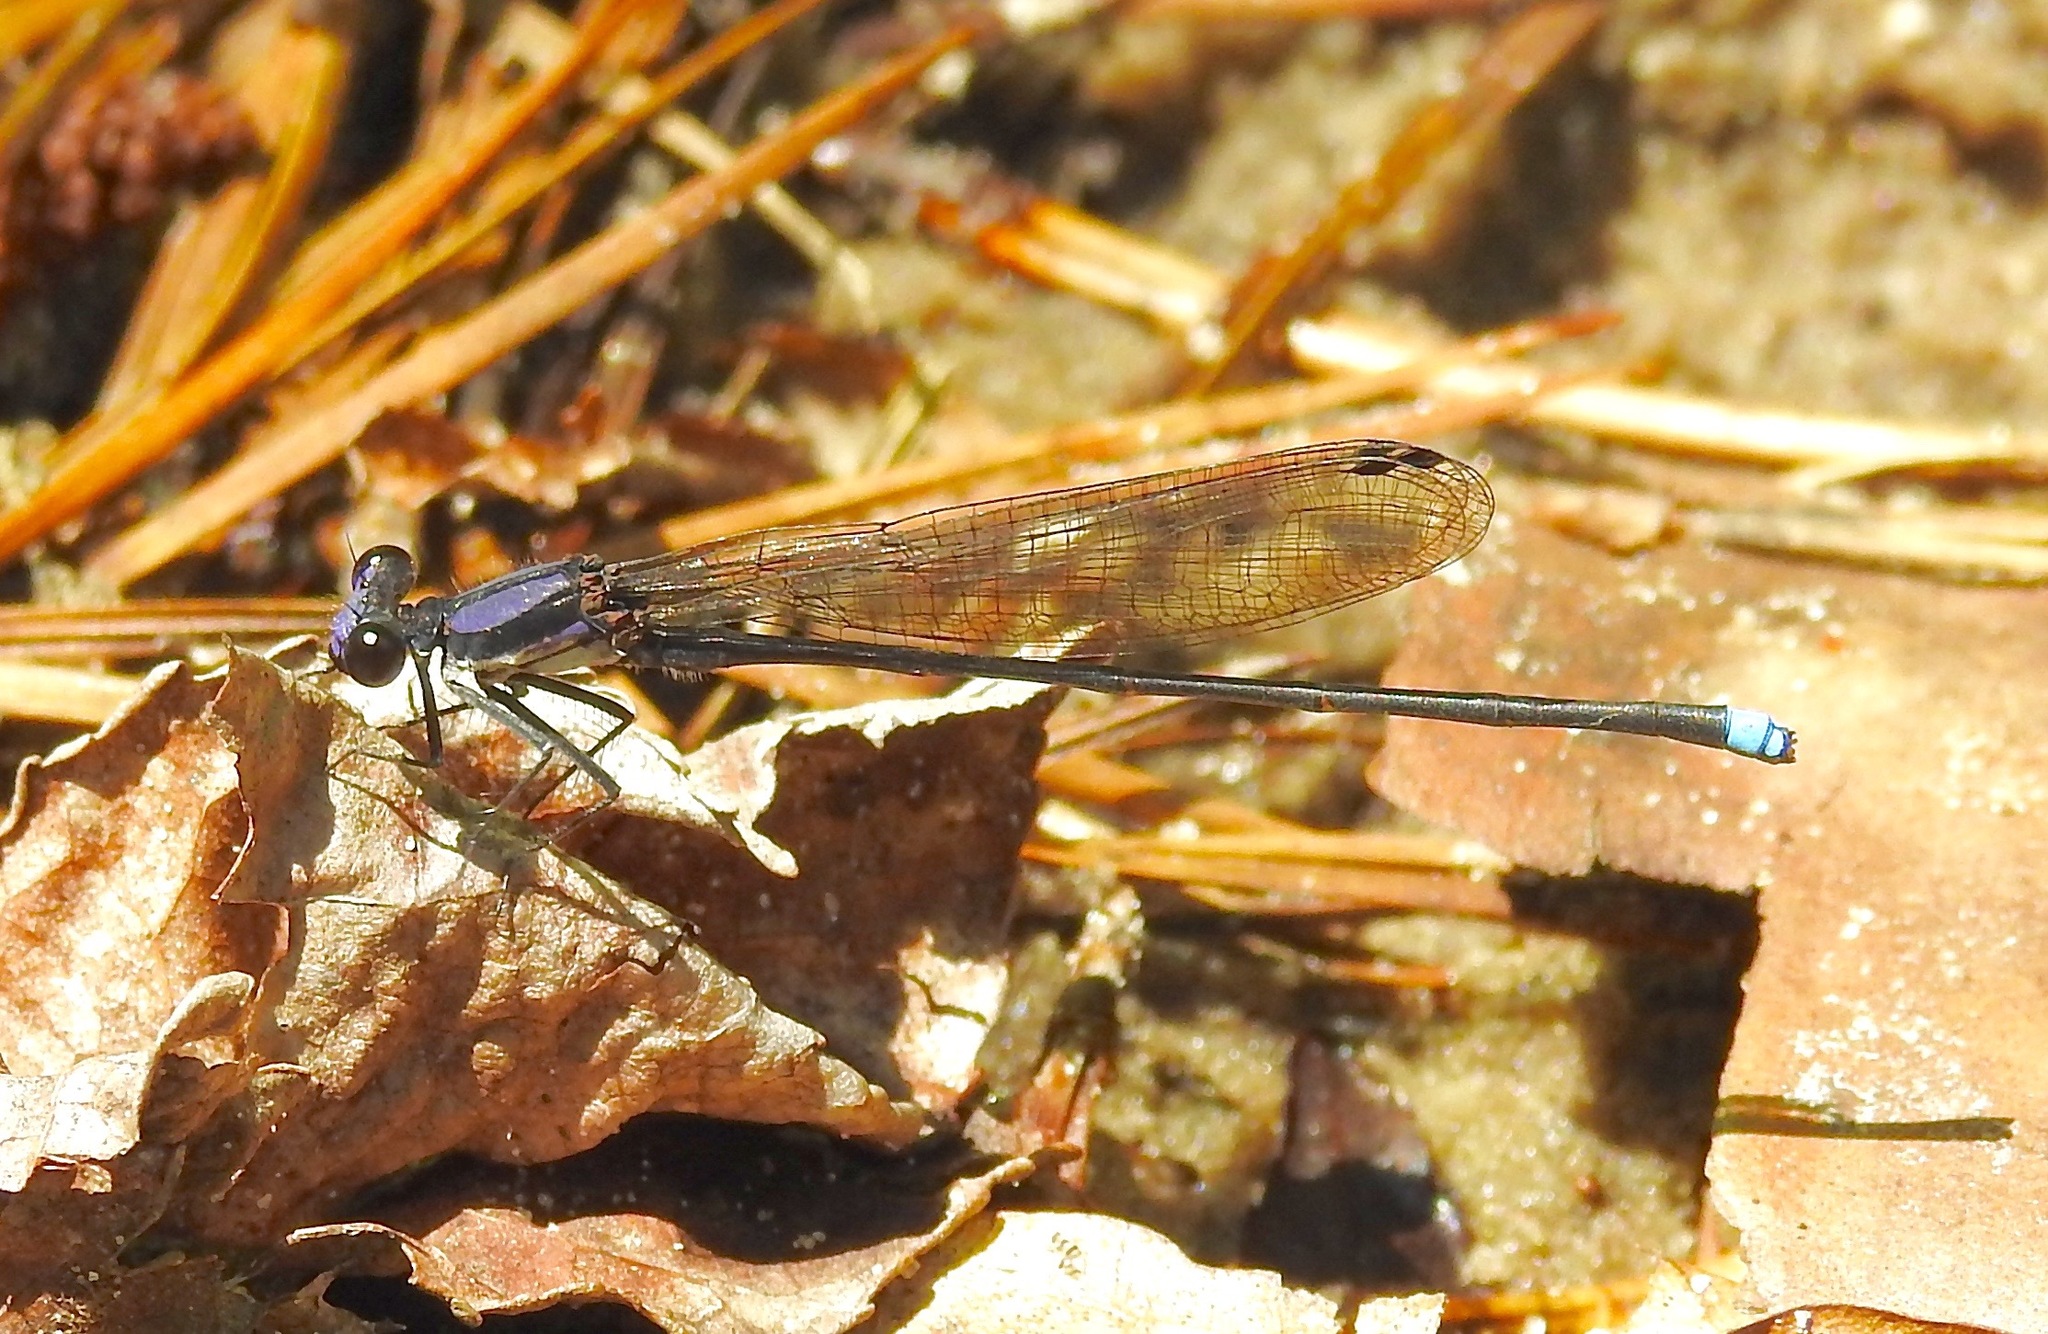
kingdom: Animalia
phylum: Arthropoda
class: Insecta
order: Odonata
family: Coenagrionidae
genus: Argia
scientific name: Argia tibialis
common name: Blue-tipped dancer
